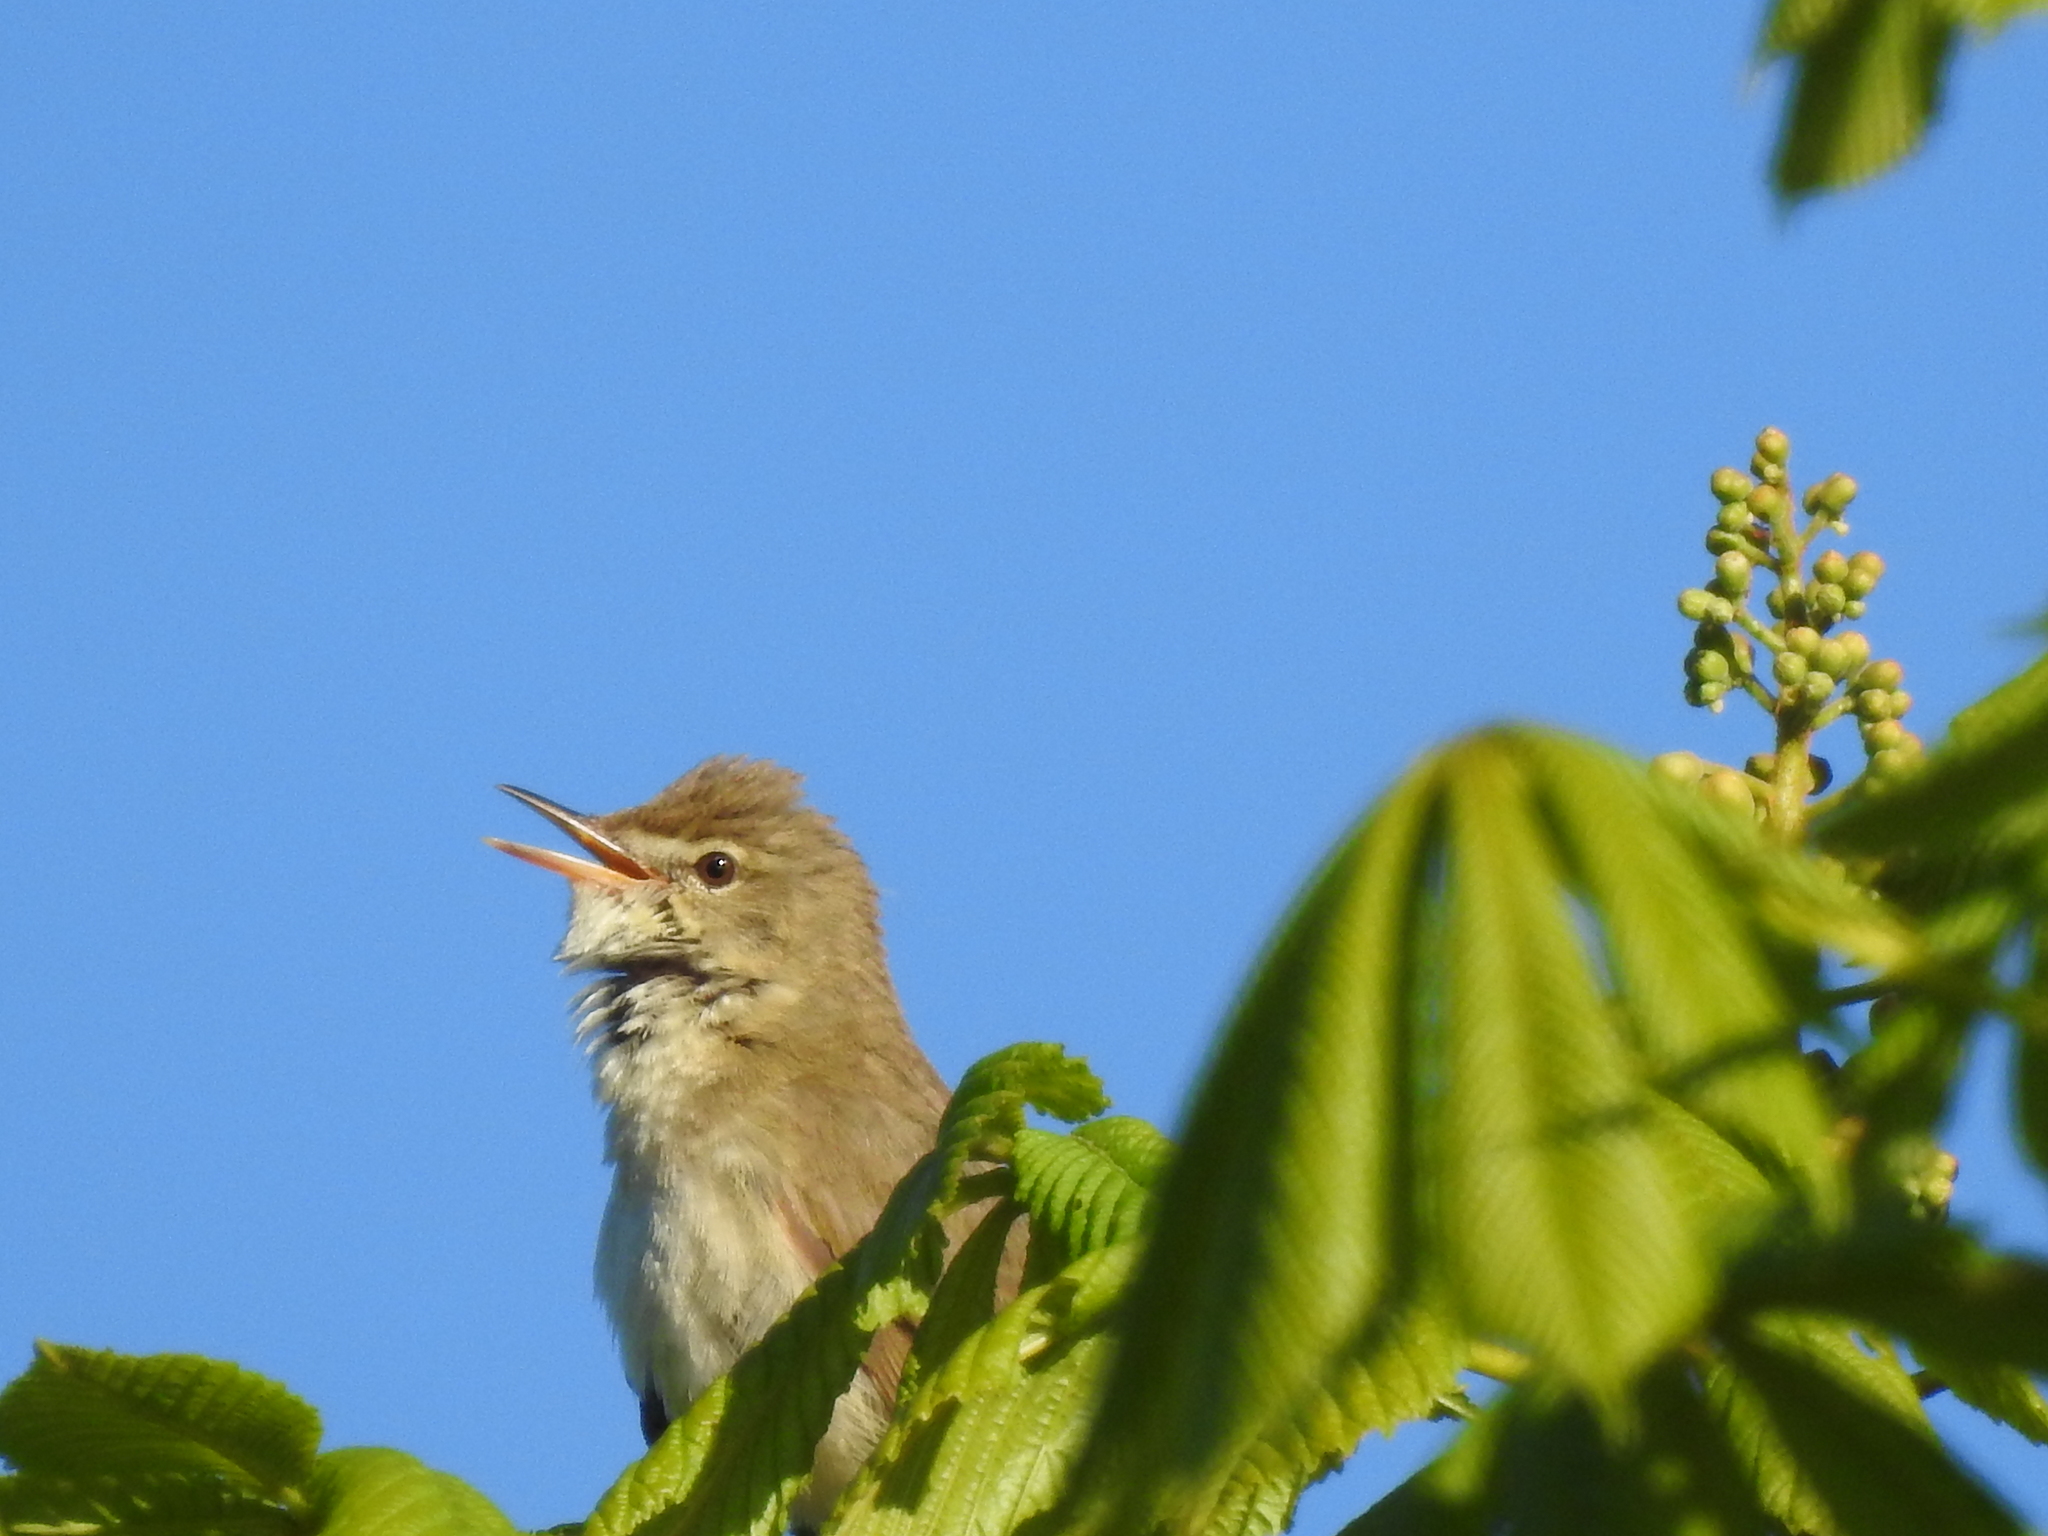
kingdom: Animalia
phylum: Chordata
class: Aves
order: Passeriformes
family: Acrocephalidae
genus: Acrocephalus
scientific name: Acrocephalus dumetorum
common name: Blyth's reed warbler
